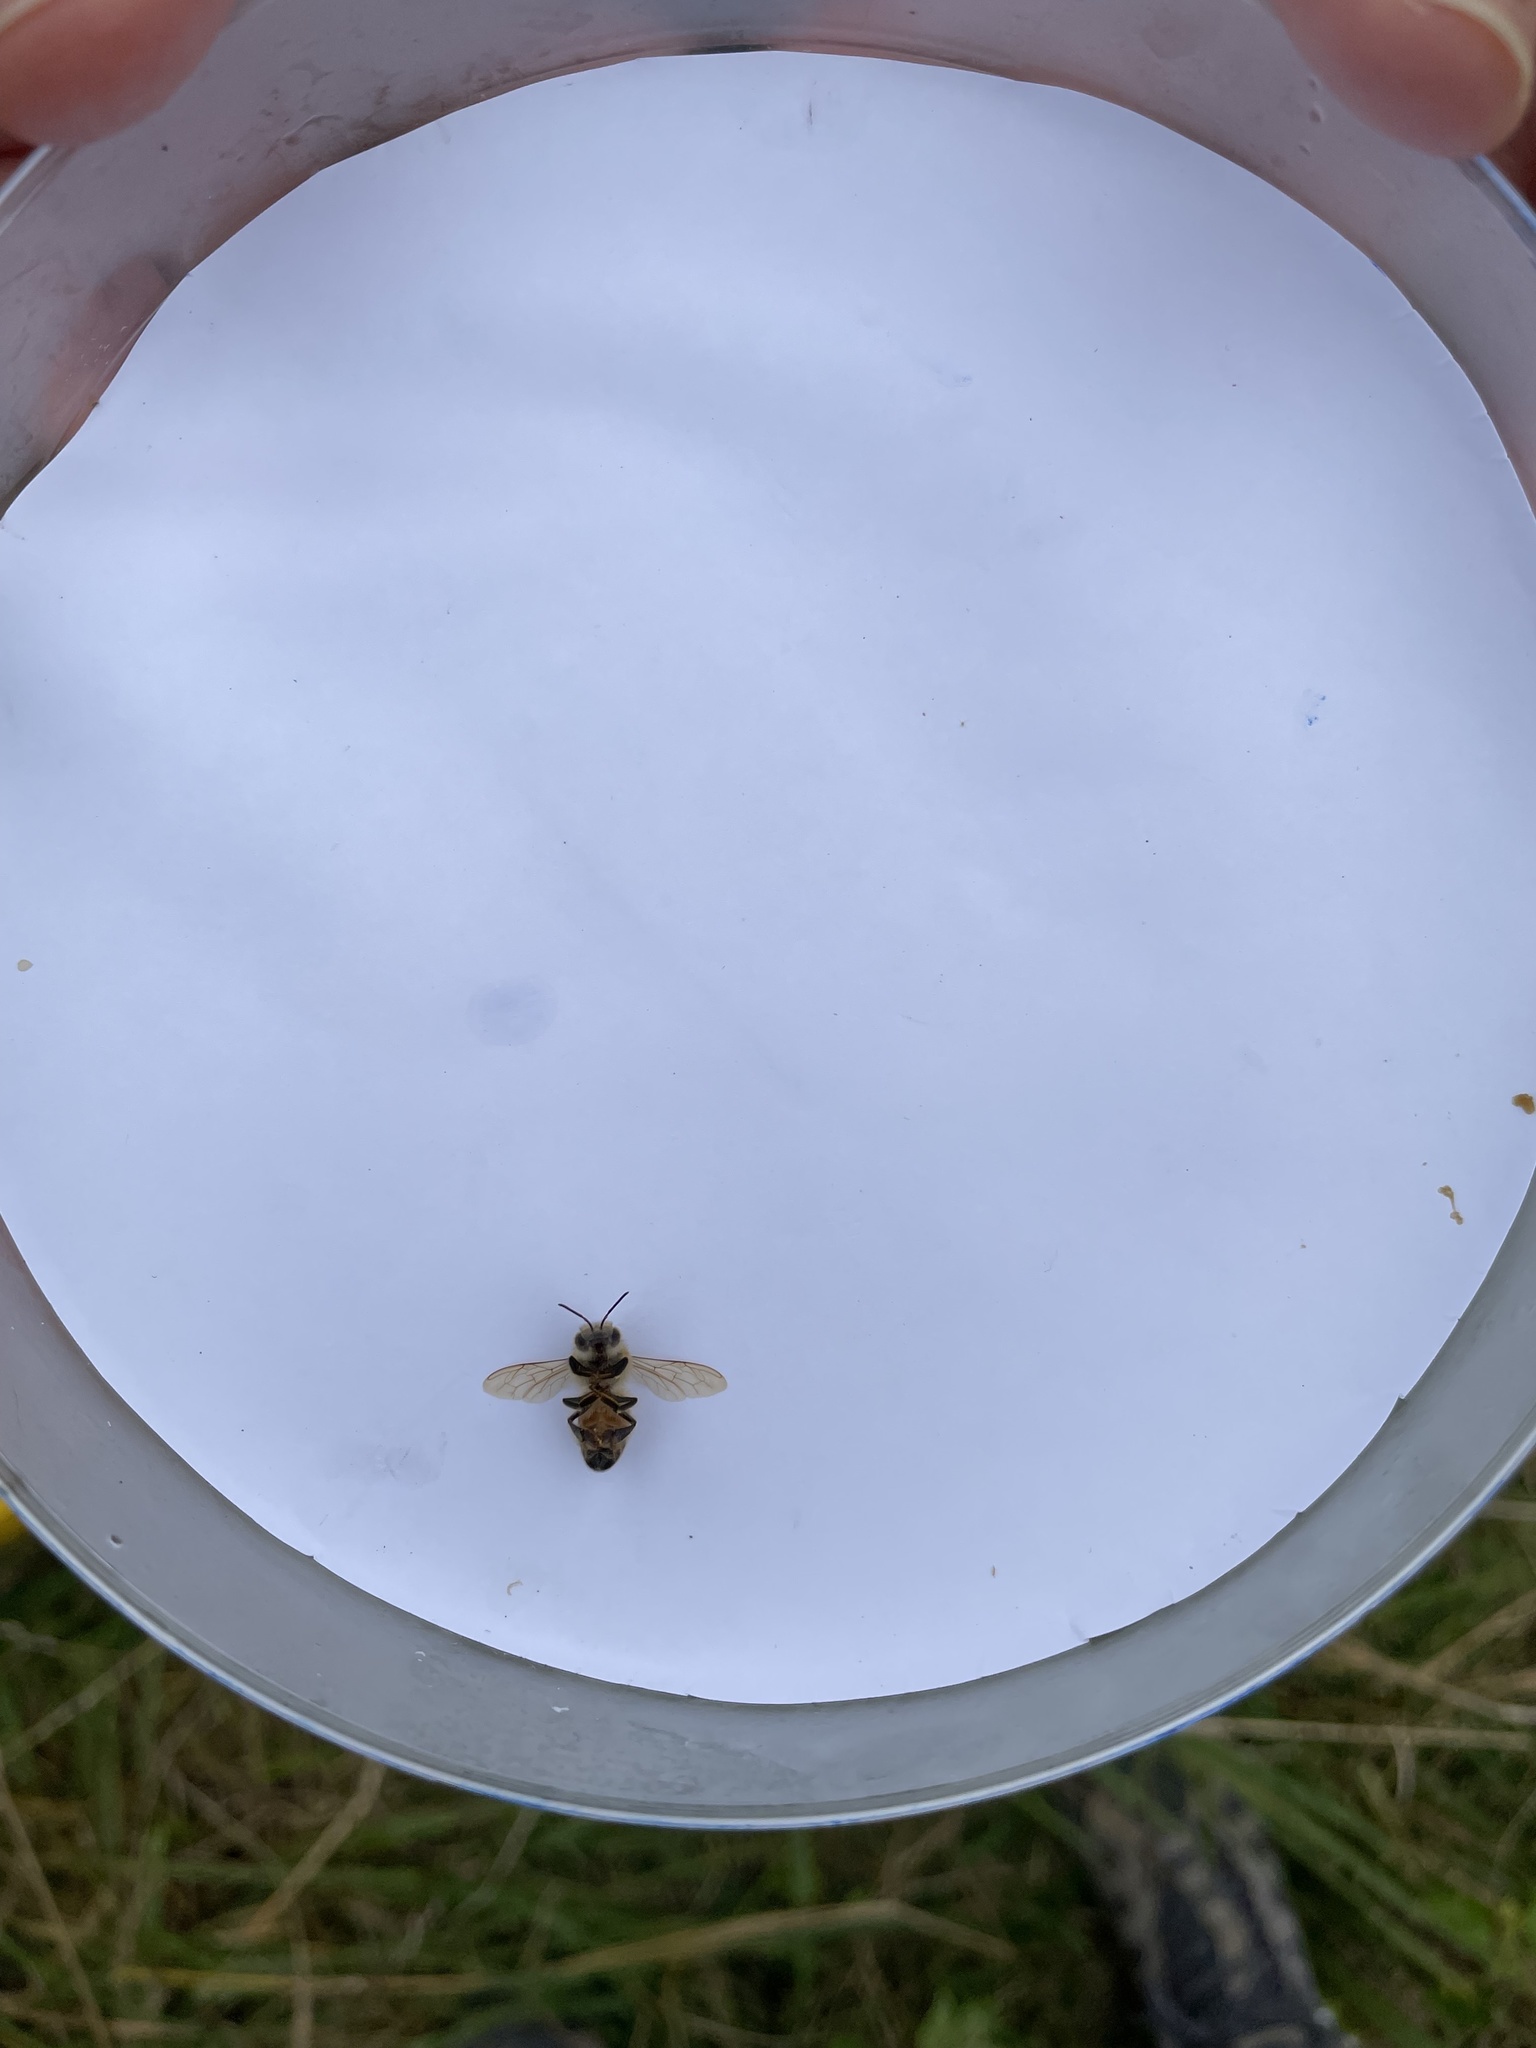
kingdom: Animalia
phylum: Arthropoda
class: Insecta
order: Hymenoptera
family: Apidae
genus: Apis
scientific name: Apis mellifera
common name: Honey bee
